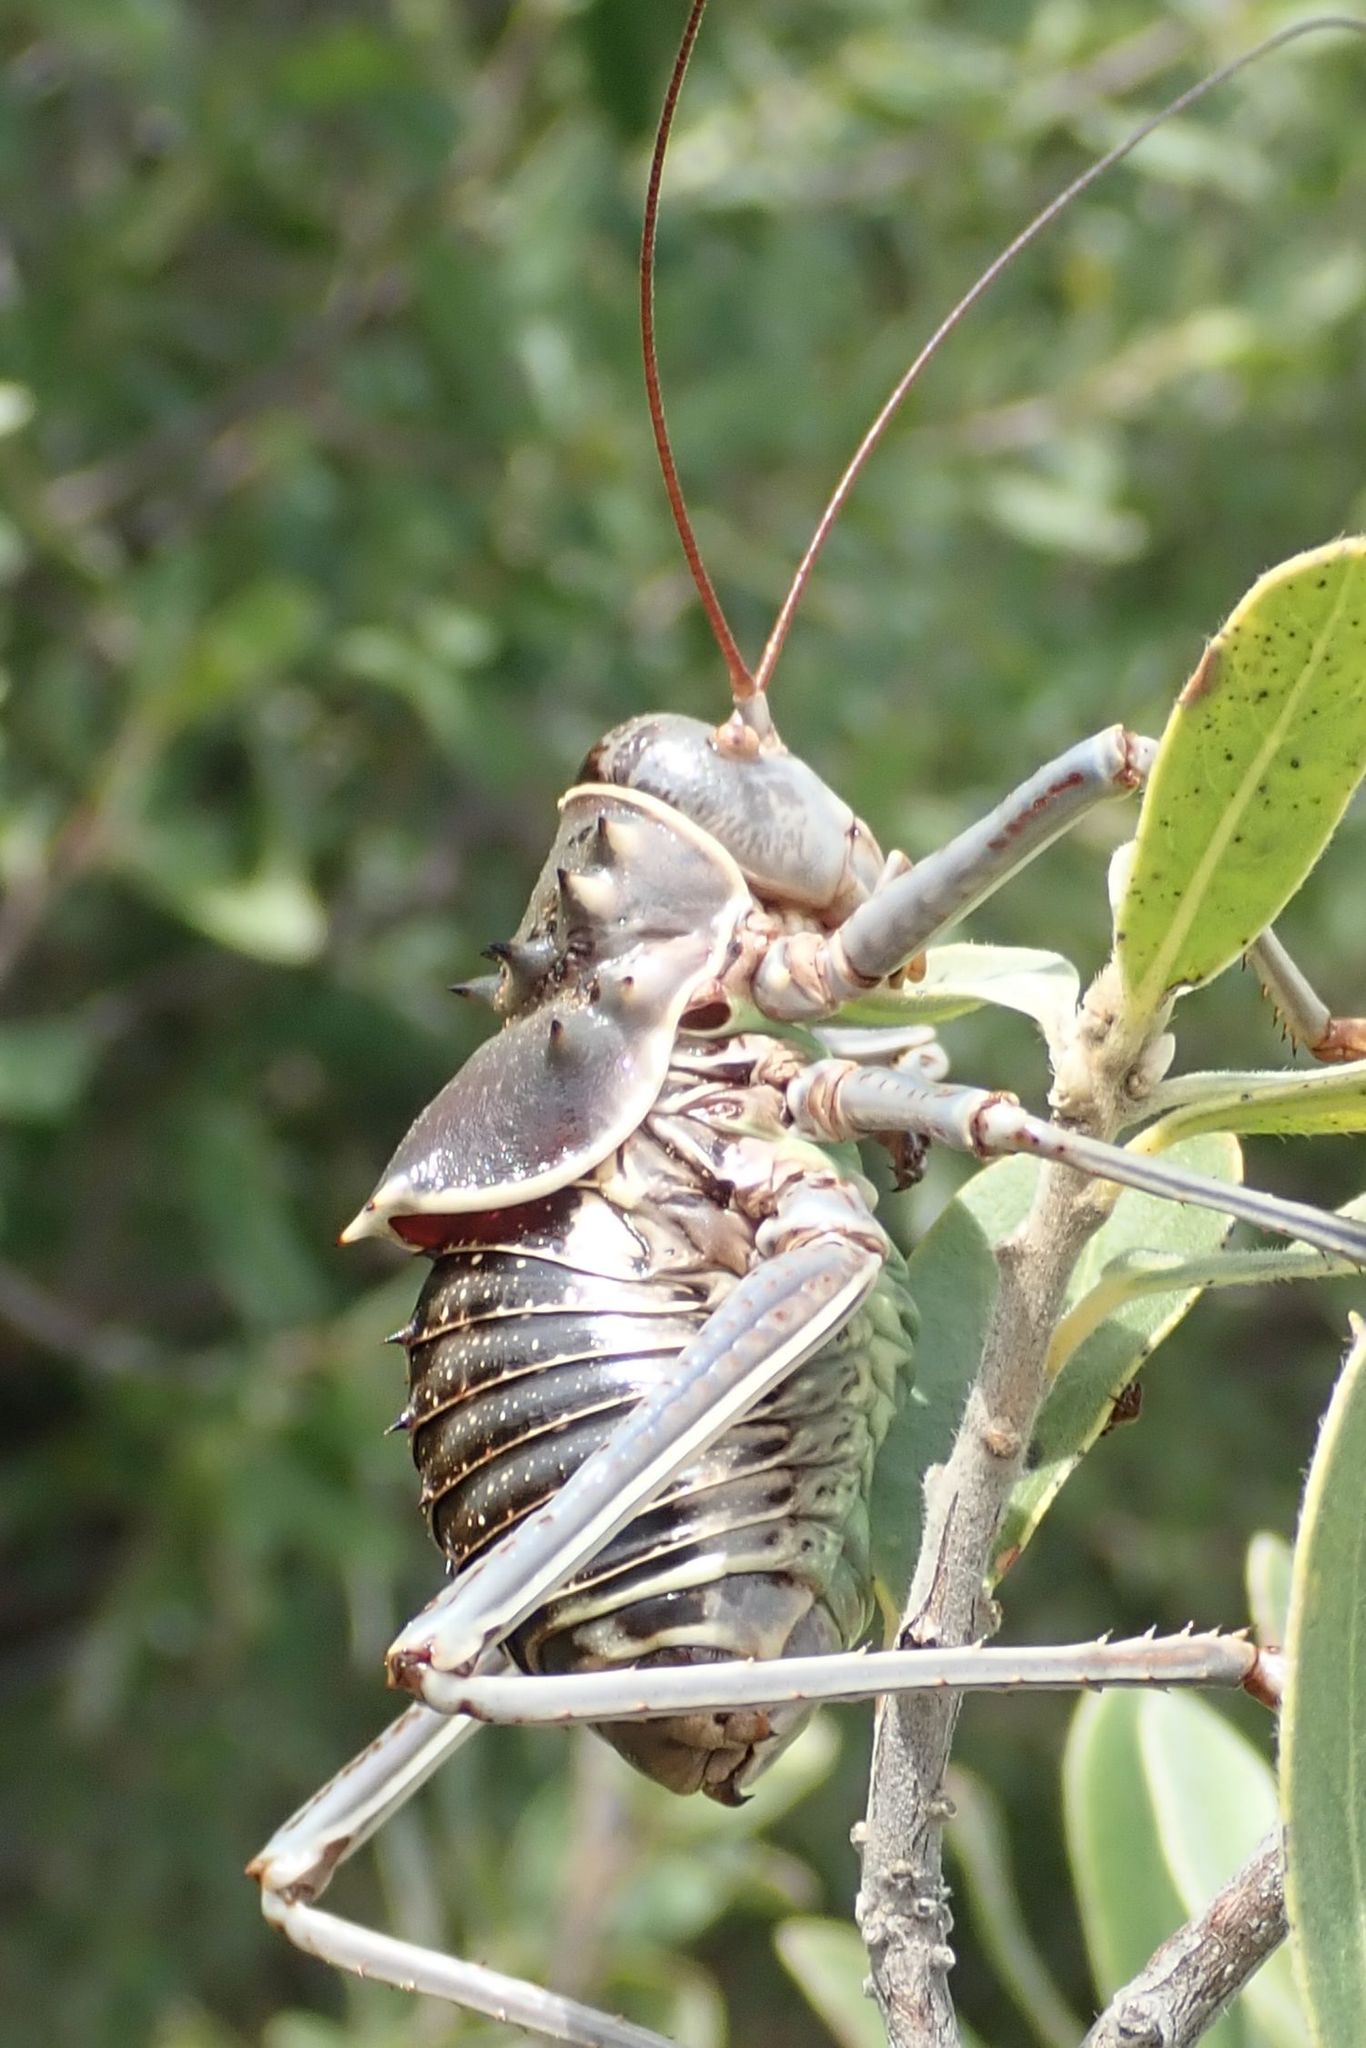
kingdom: Animalia
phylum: Arthropoda
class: Insecta
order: Orthoptera
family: Tettigoniidae
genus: Acanthoplus
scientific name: Acanthoplus discoidalis
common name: Armoured katydid
